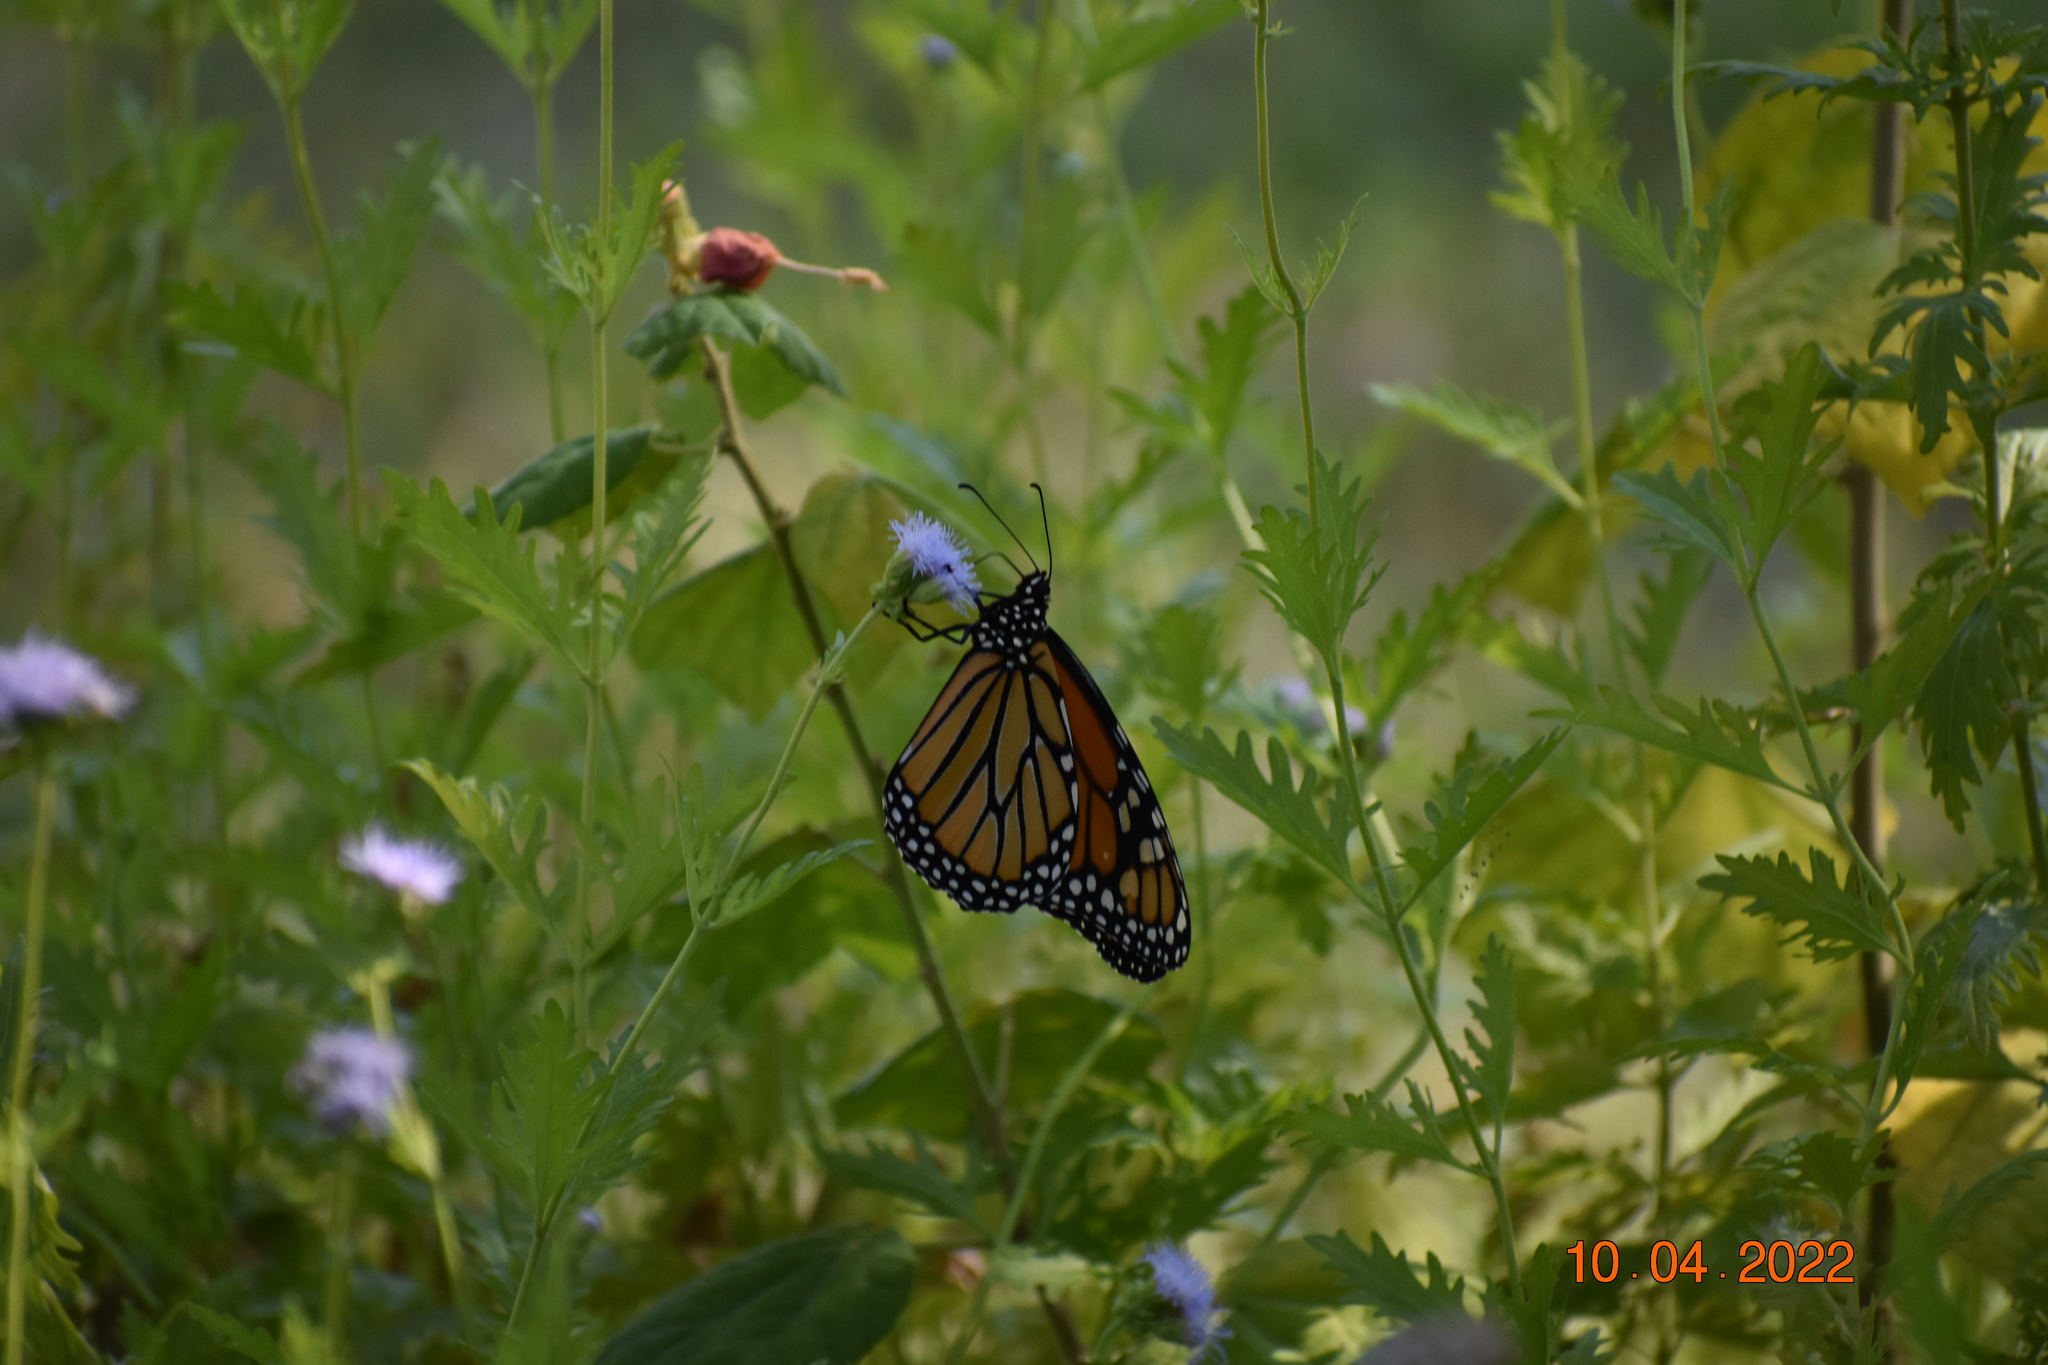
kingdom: Animalia
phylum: Arthropoda
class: Insecta
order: Lepidoptera
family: Nymphalidae
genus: Danaus
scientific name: Danaus plexippus
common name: Monarch
